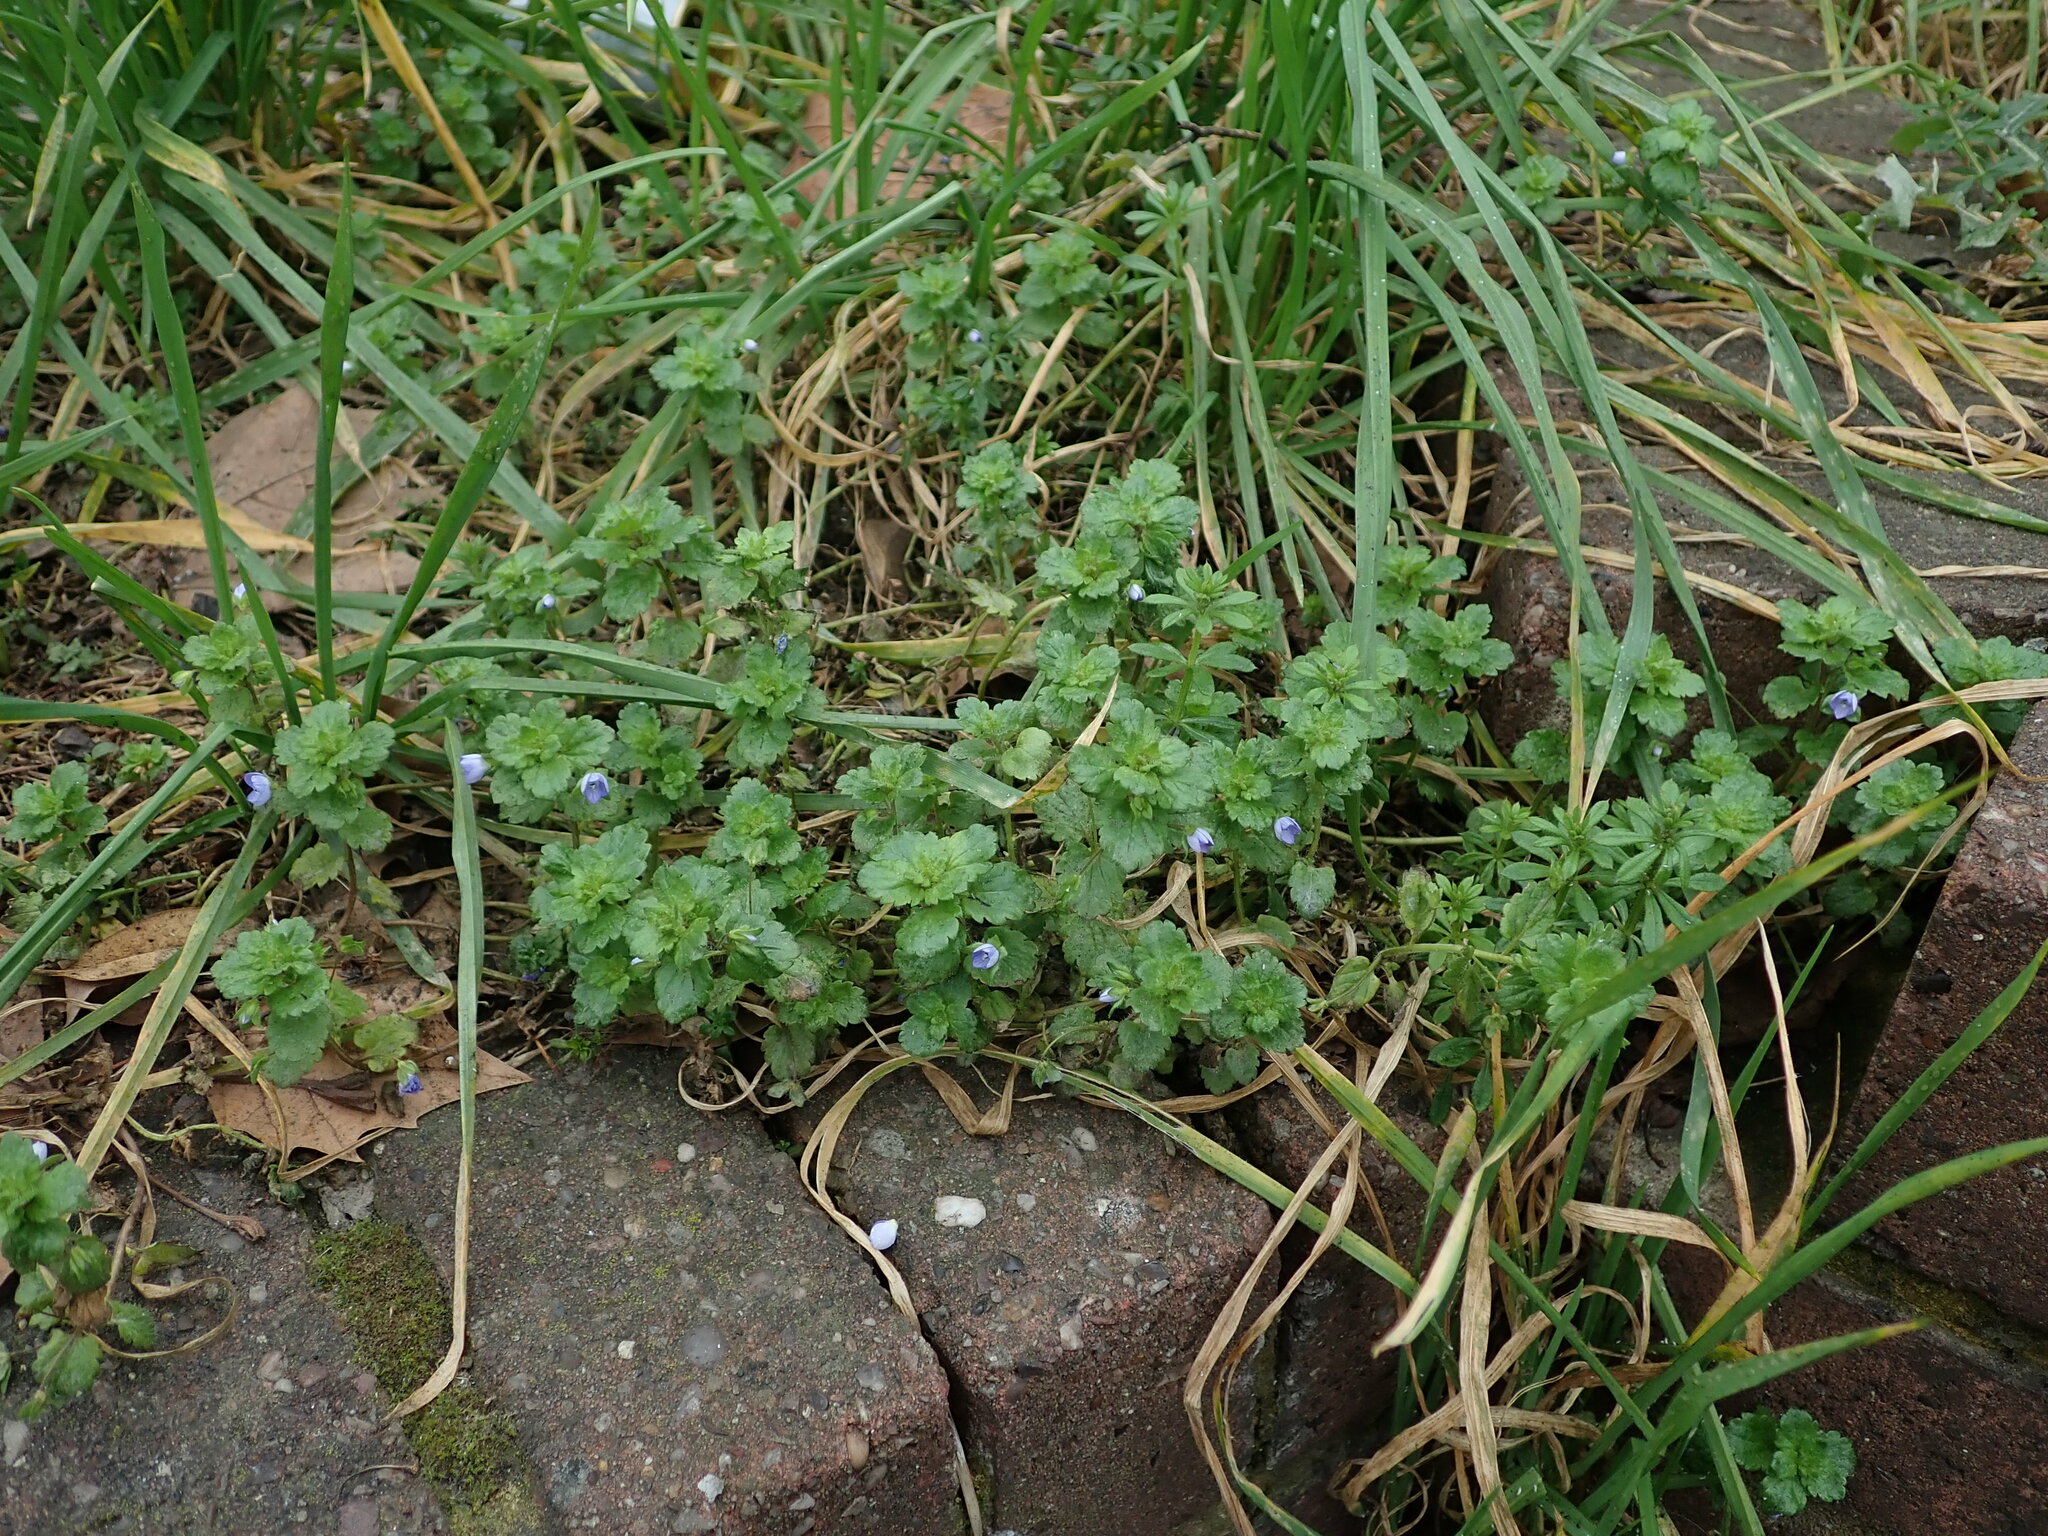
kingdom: Plantae
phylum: Tracheophyta
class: Magnoliopsida
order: Lamiales
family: Plantaginaceae
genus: Veronica
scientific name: Veronica persica
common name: Common field-speedwell
